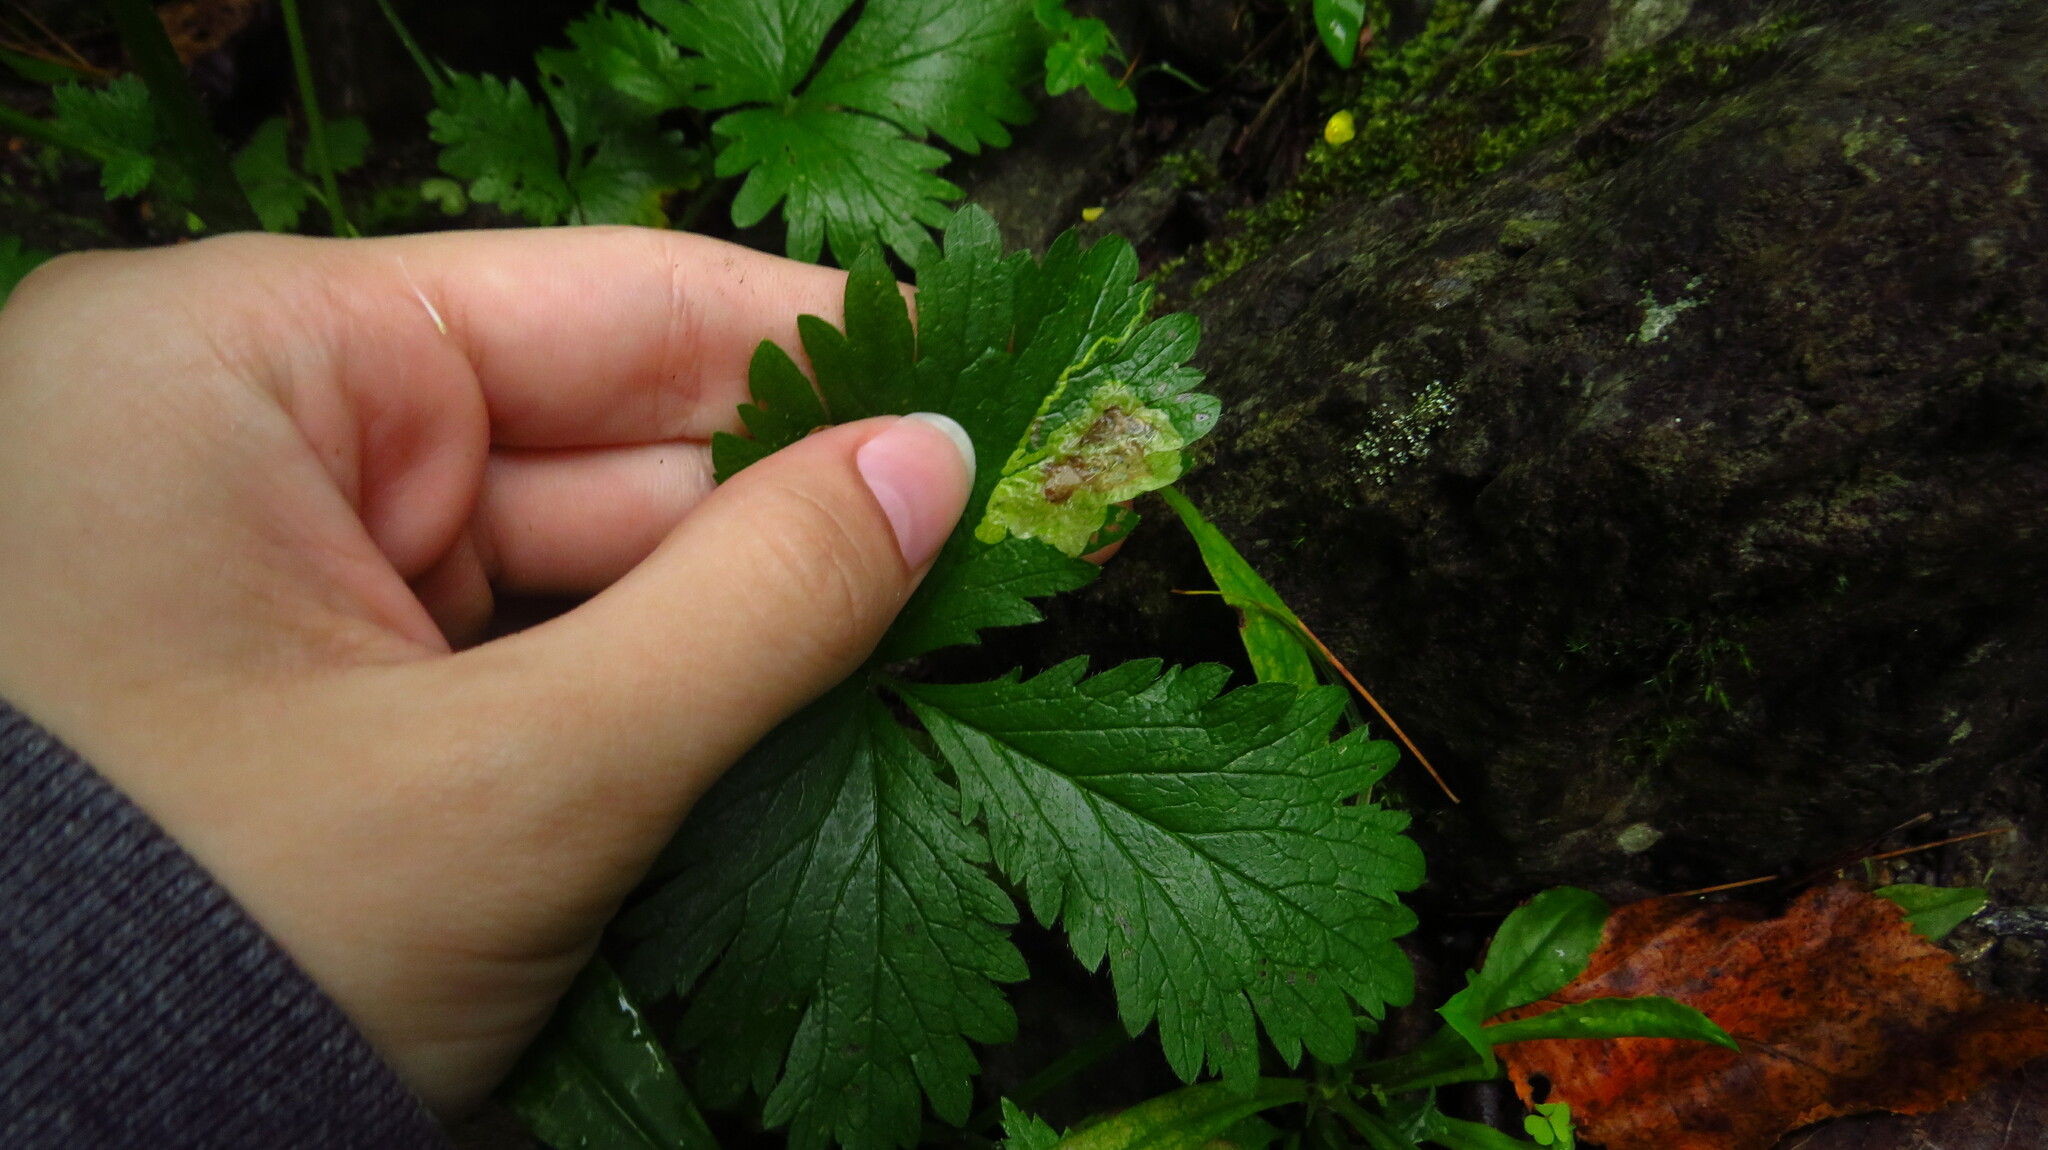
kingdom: Plantae
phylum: Tracheophyta
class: Magnoliopsida
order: Rosales
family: Rosaceae
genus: Potentilla
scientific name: Potentilla norvegica
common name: Ternate-leaved cinquefoil
